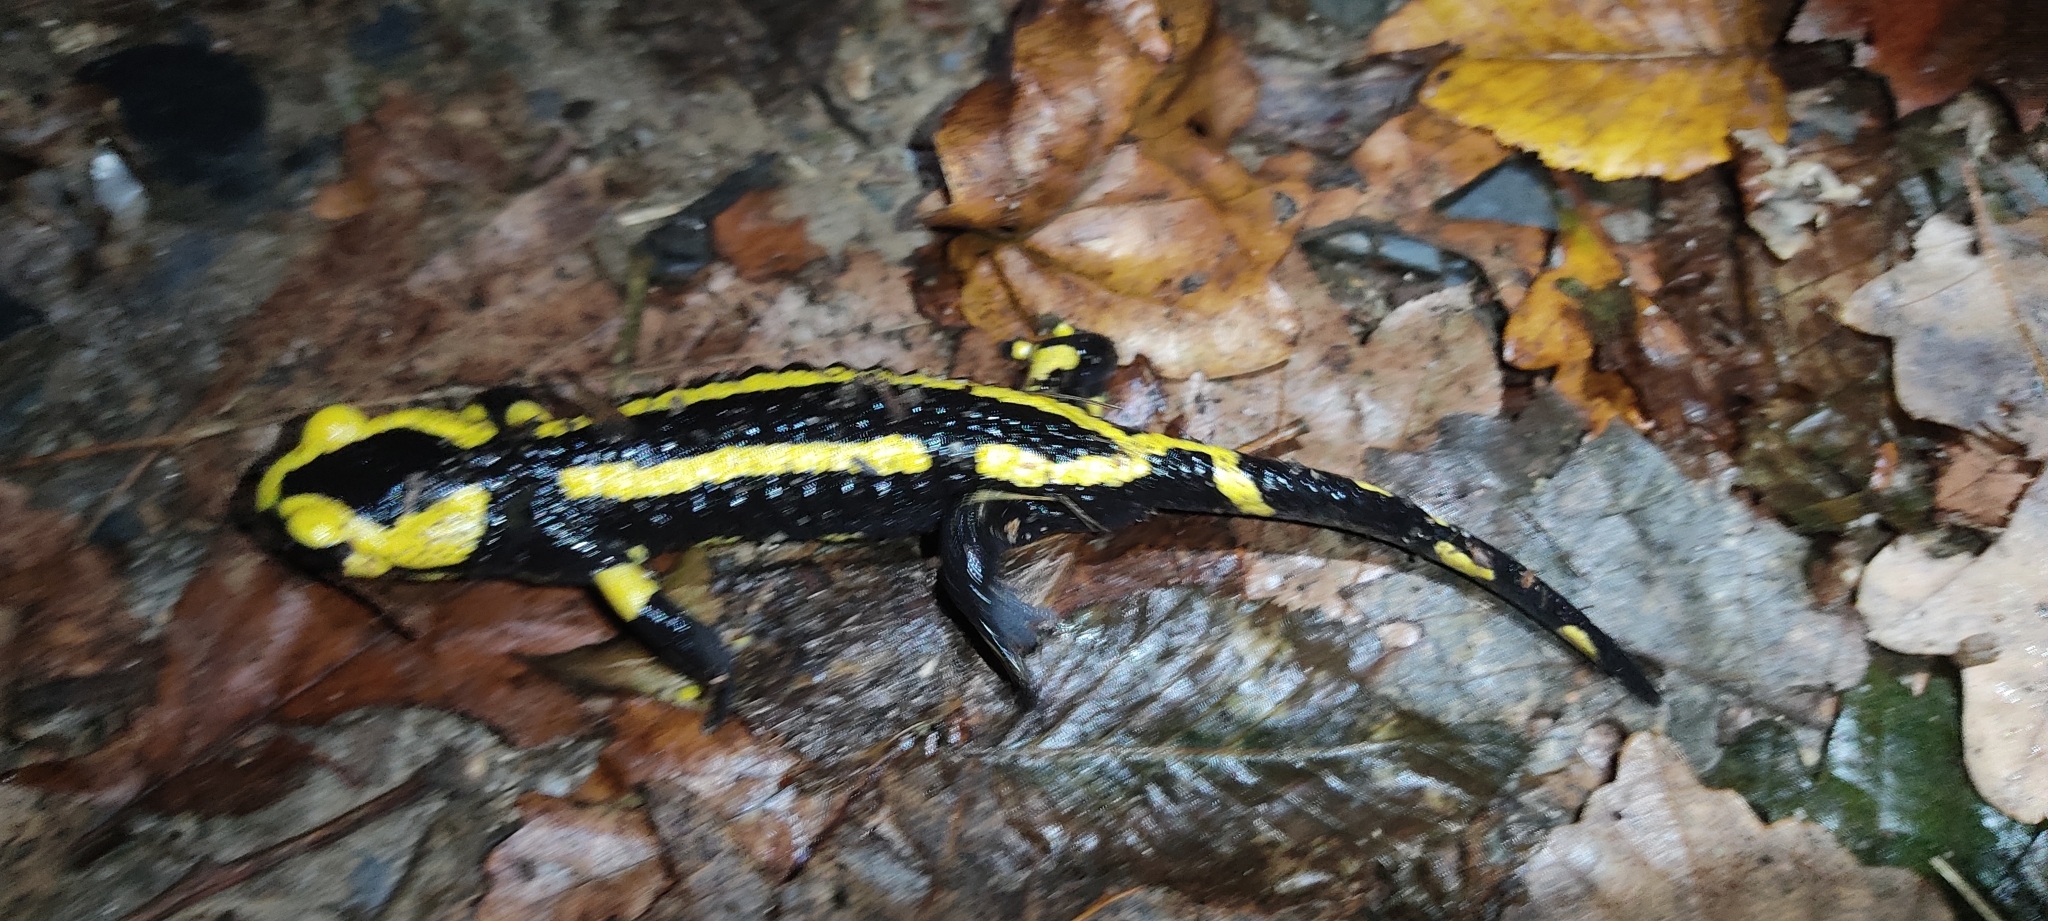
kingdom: Animalia
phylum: Chordata
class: Amphibia
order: Caudata
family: Salamandridae
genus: Salamandra
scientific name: Salamandra salamandra
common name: Fire salamander
